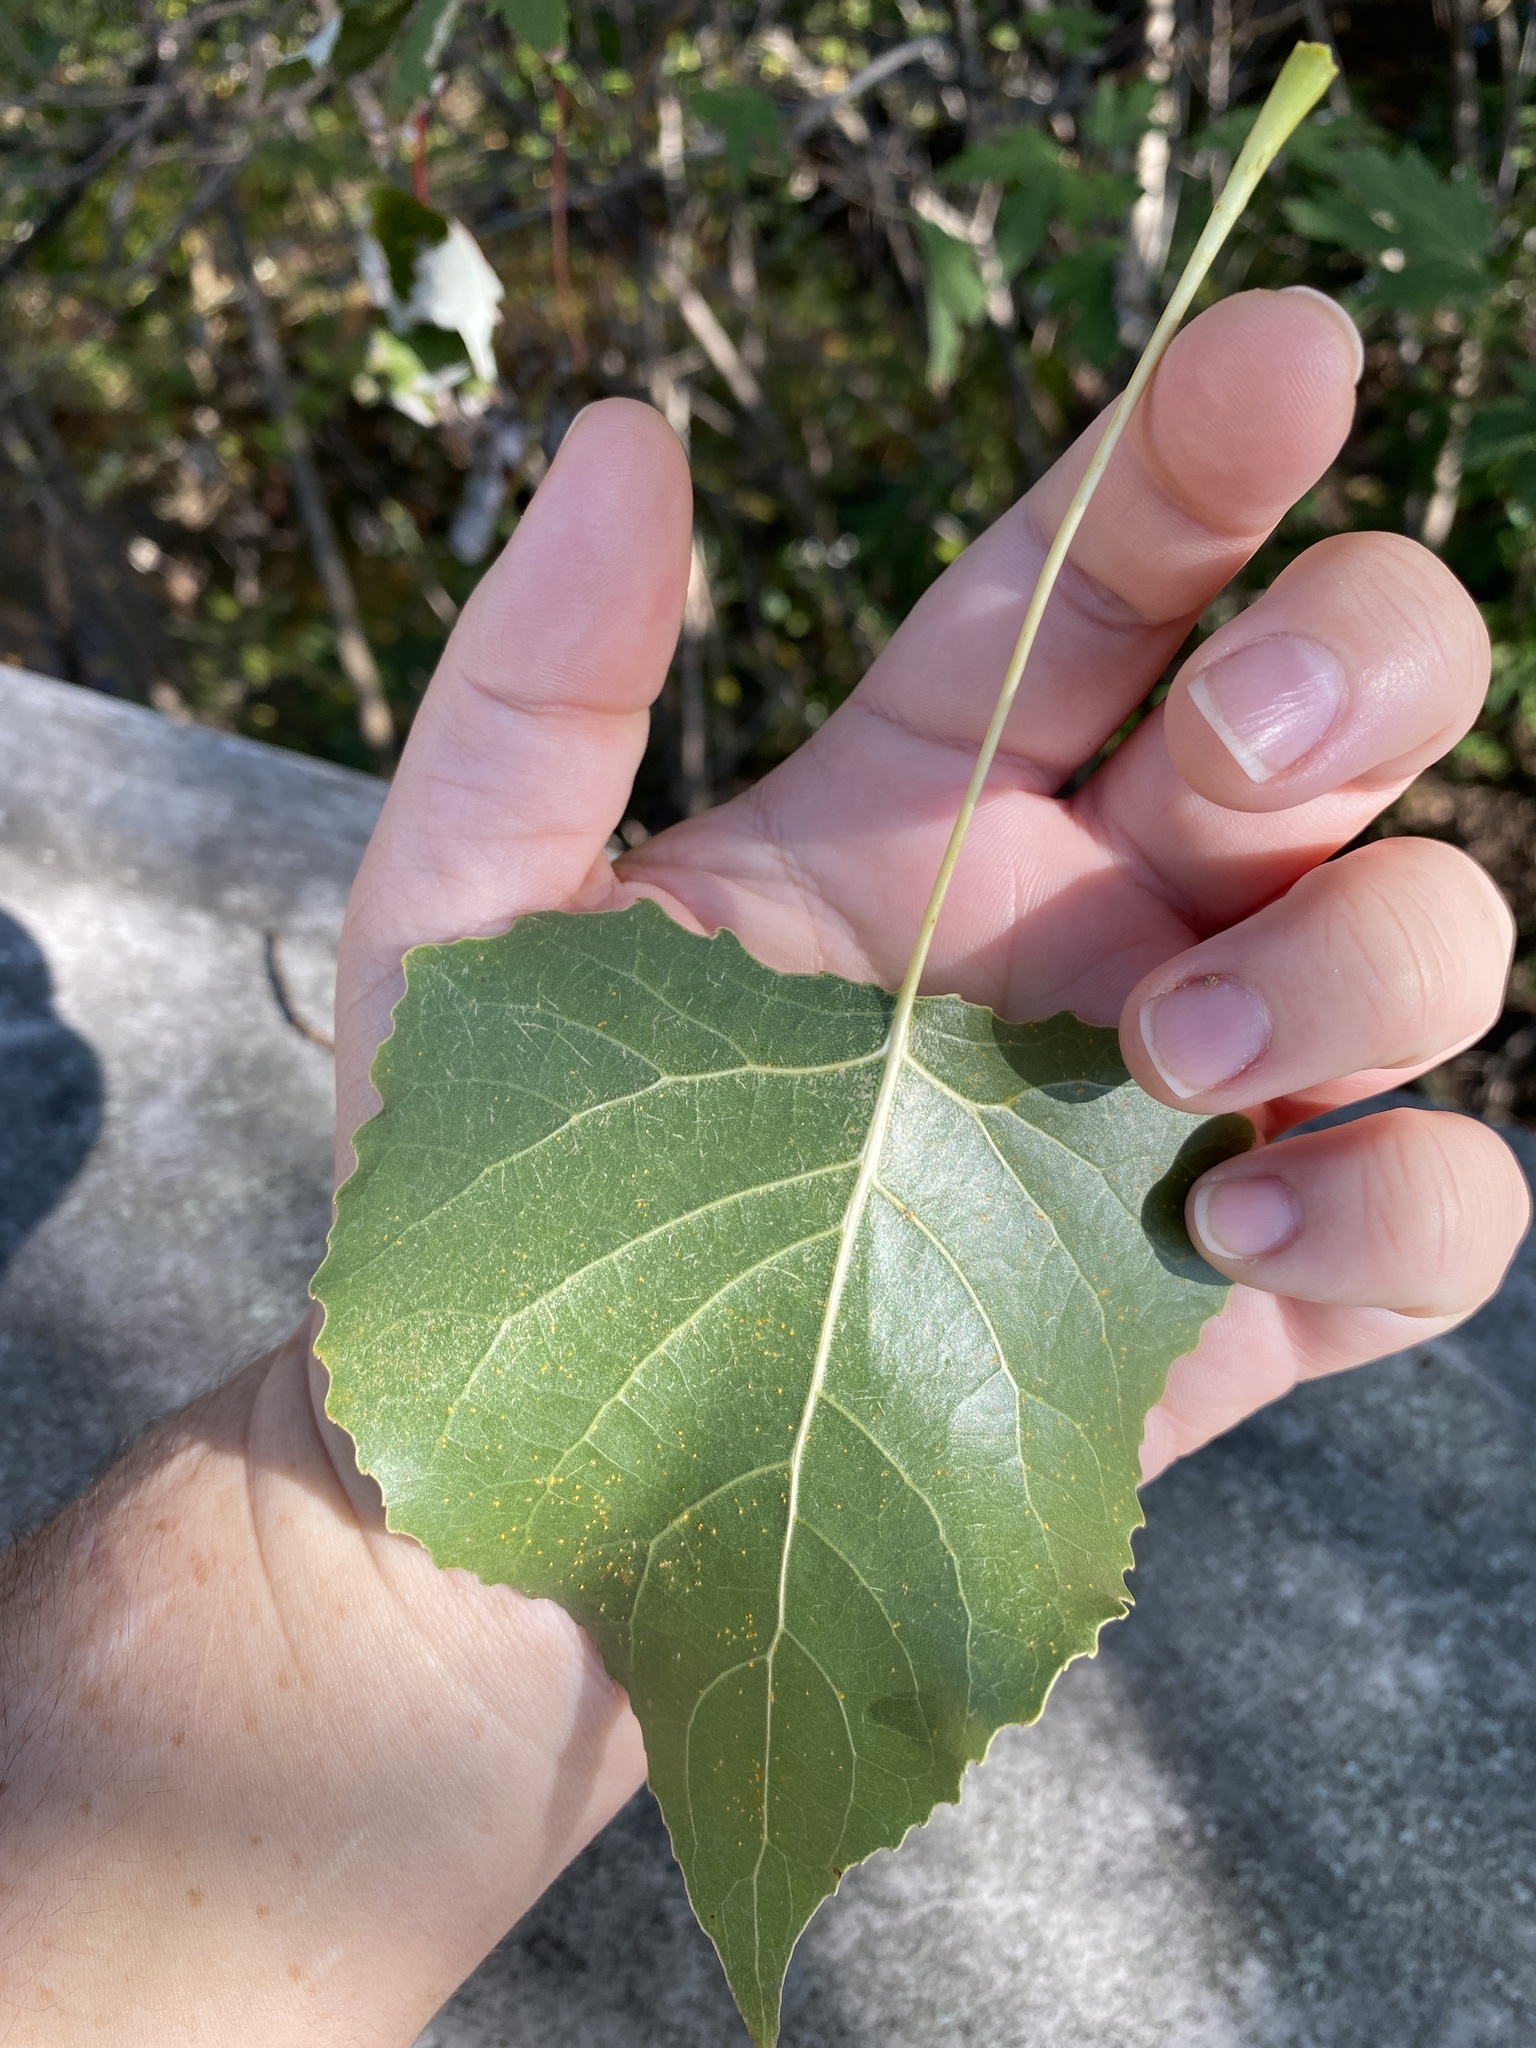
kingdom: Plantae
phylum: Tracheophyta
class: Magnoliopsida
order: Malpighiales
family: Salicaceae
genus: Populus
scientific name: Populus deltoides
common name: Eastern cottonwood
